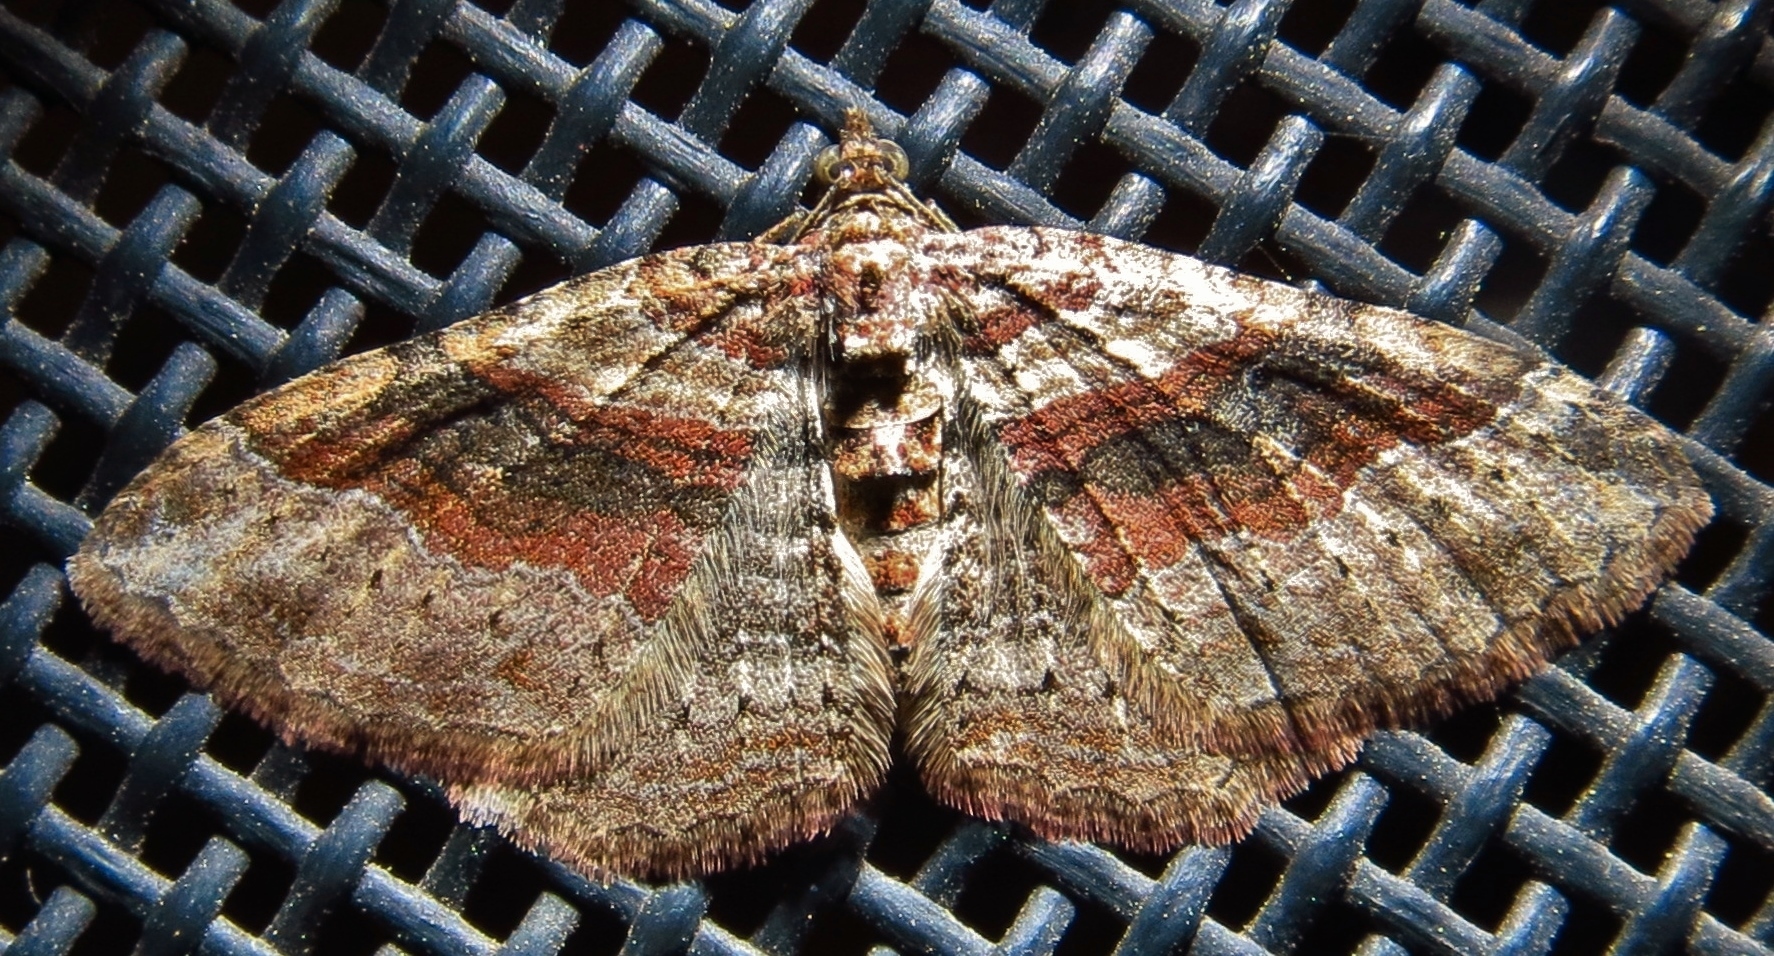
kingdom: Animalia
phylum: Arthropoda
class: Insecta
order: Lepidoptera
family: Geometridae
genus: Costaconvexa
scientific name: Costaconvexa centrostrigaria
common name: Bent-line carpet
